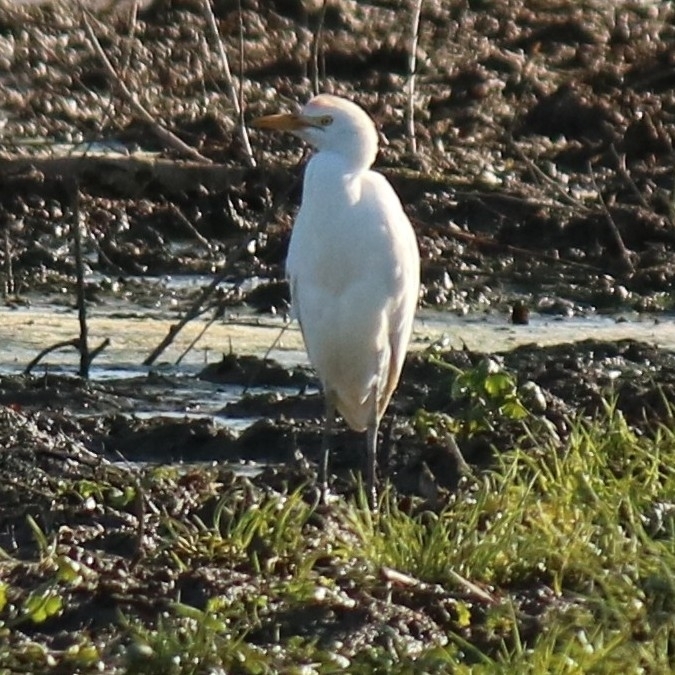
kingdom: Animalia
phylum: Chordata
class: Aves
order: Pelecaniformes
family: Ardeidae
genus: Bubulcus
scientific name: Bubulcus ibis
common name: Cattle egret
